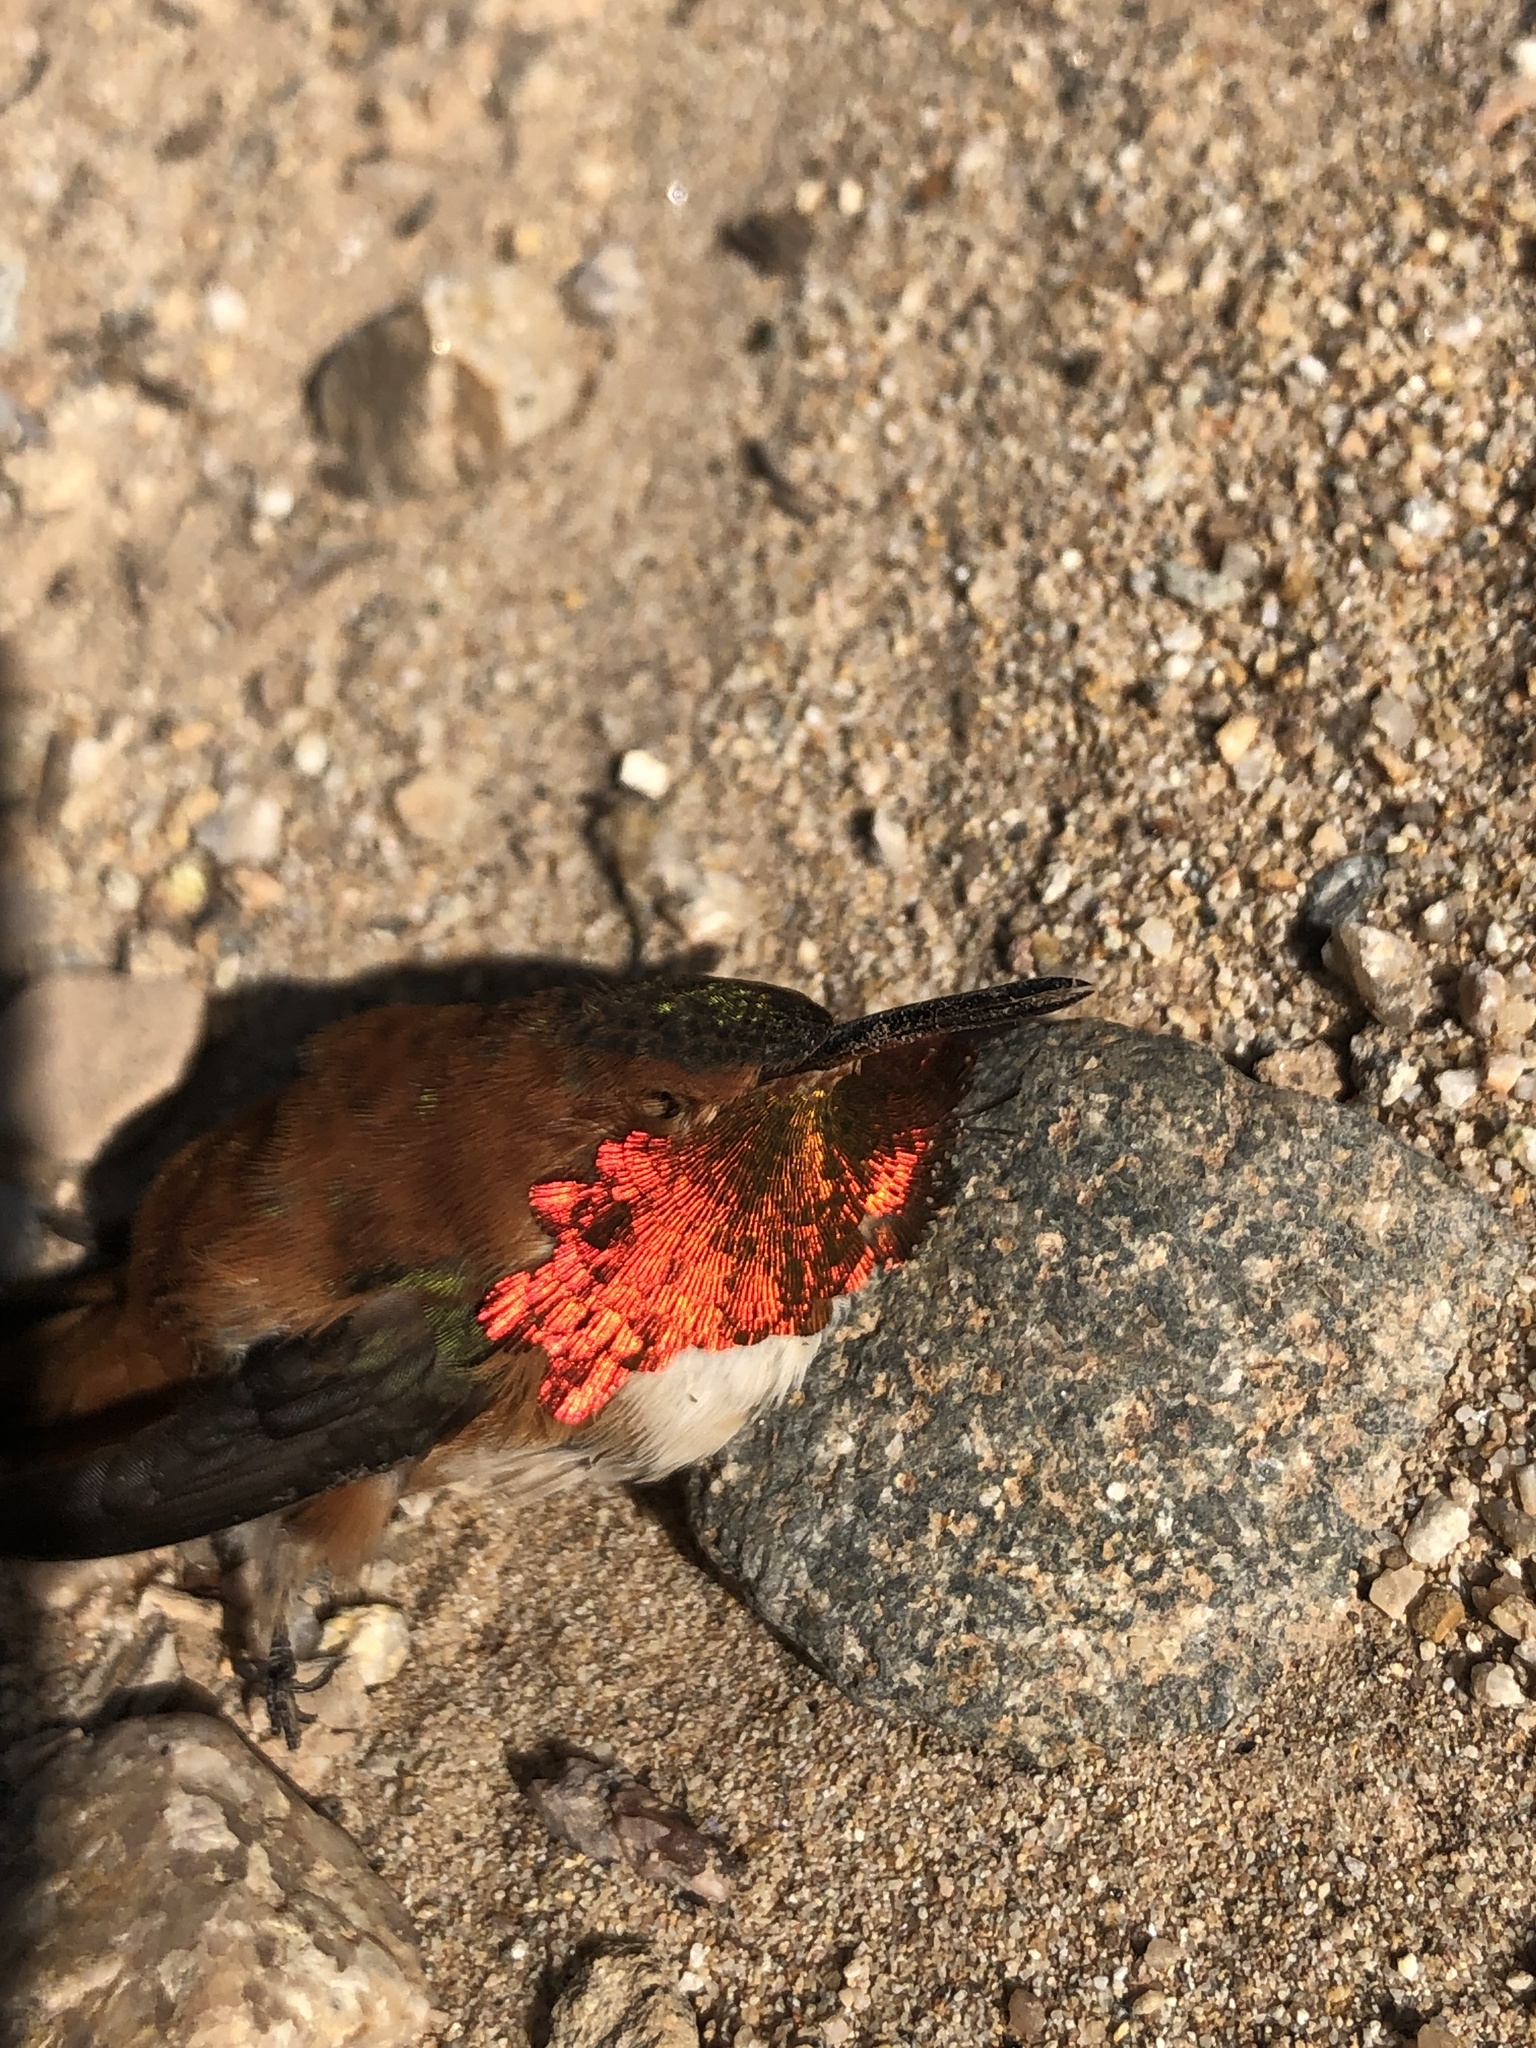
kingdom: Animalia
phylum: Chordata
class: Aves
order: Apodiformes
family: Trochilidae
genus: Selasphorus
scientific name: Selasphorus rufus
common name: Rufous hummingbird
